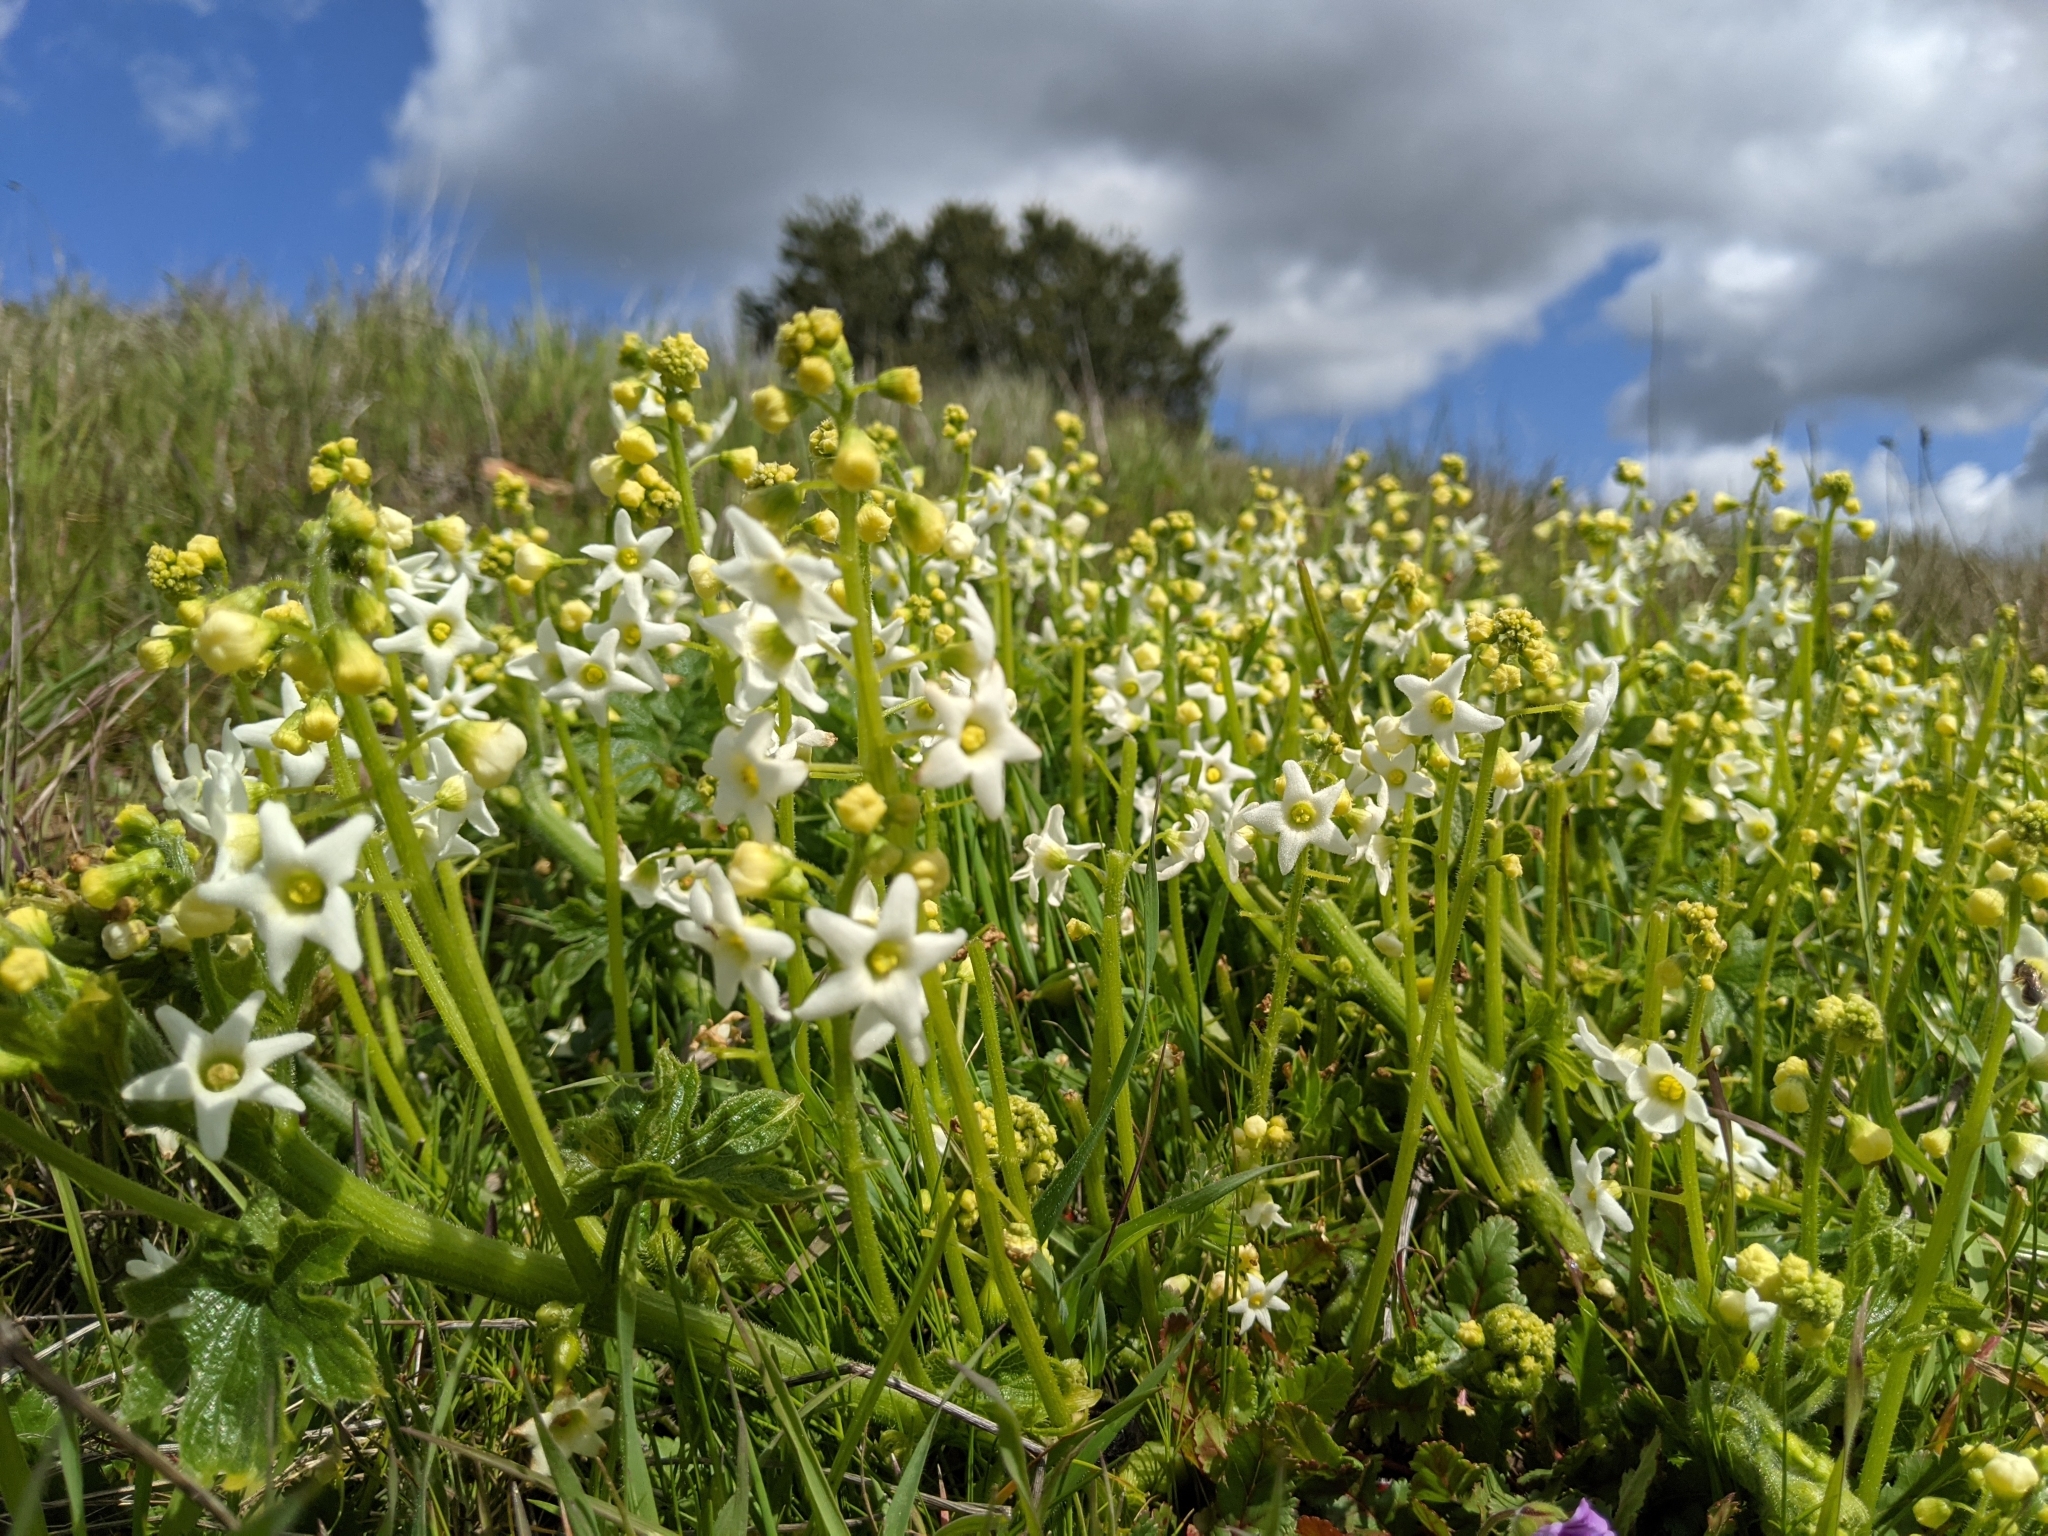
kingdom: Plantae
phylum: Tracheophyta
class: Magnoliopsida
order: Cucurbitales
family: Cucurbitaceae
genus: Marah
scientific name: Marah oregana
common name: Coastal manroot
